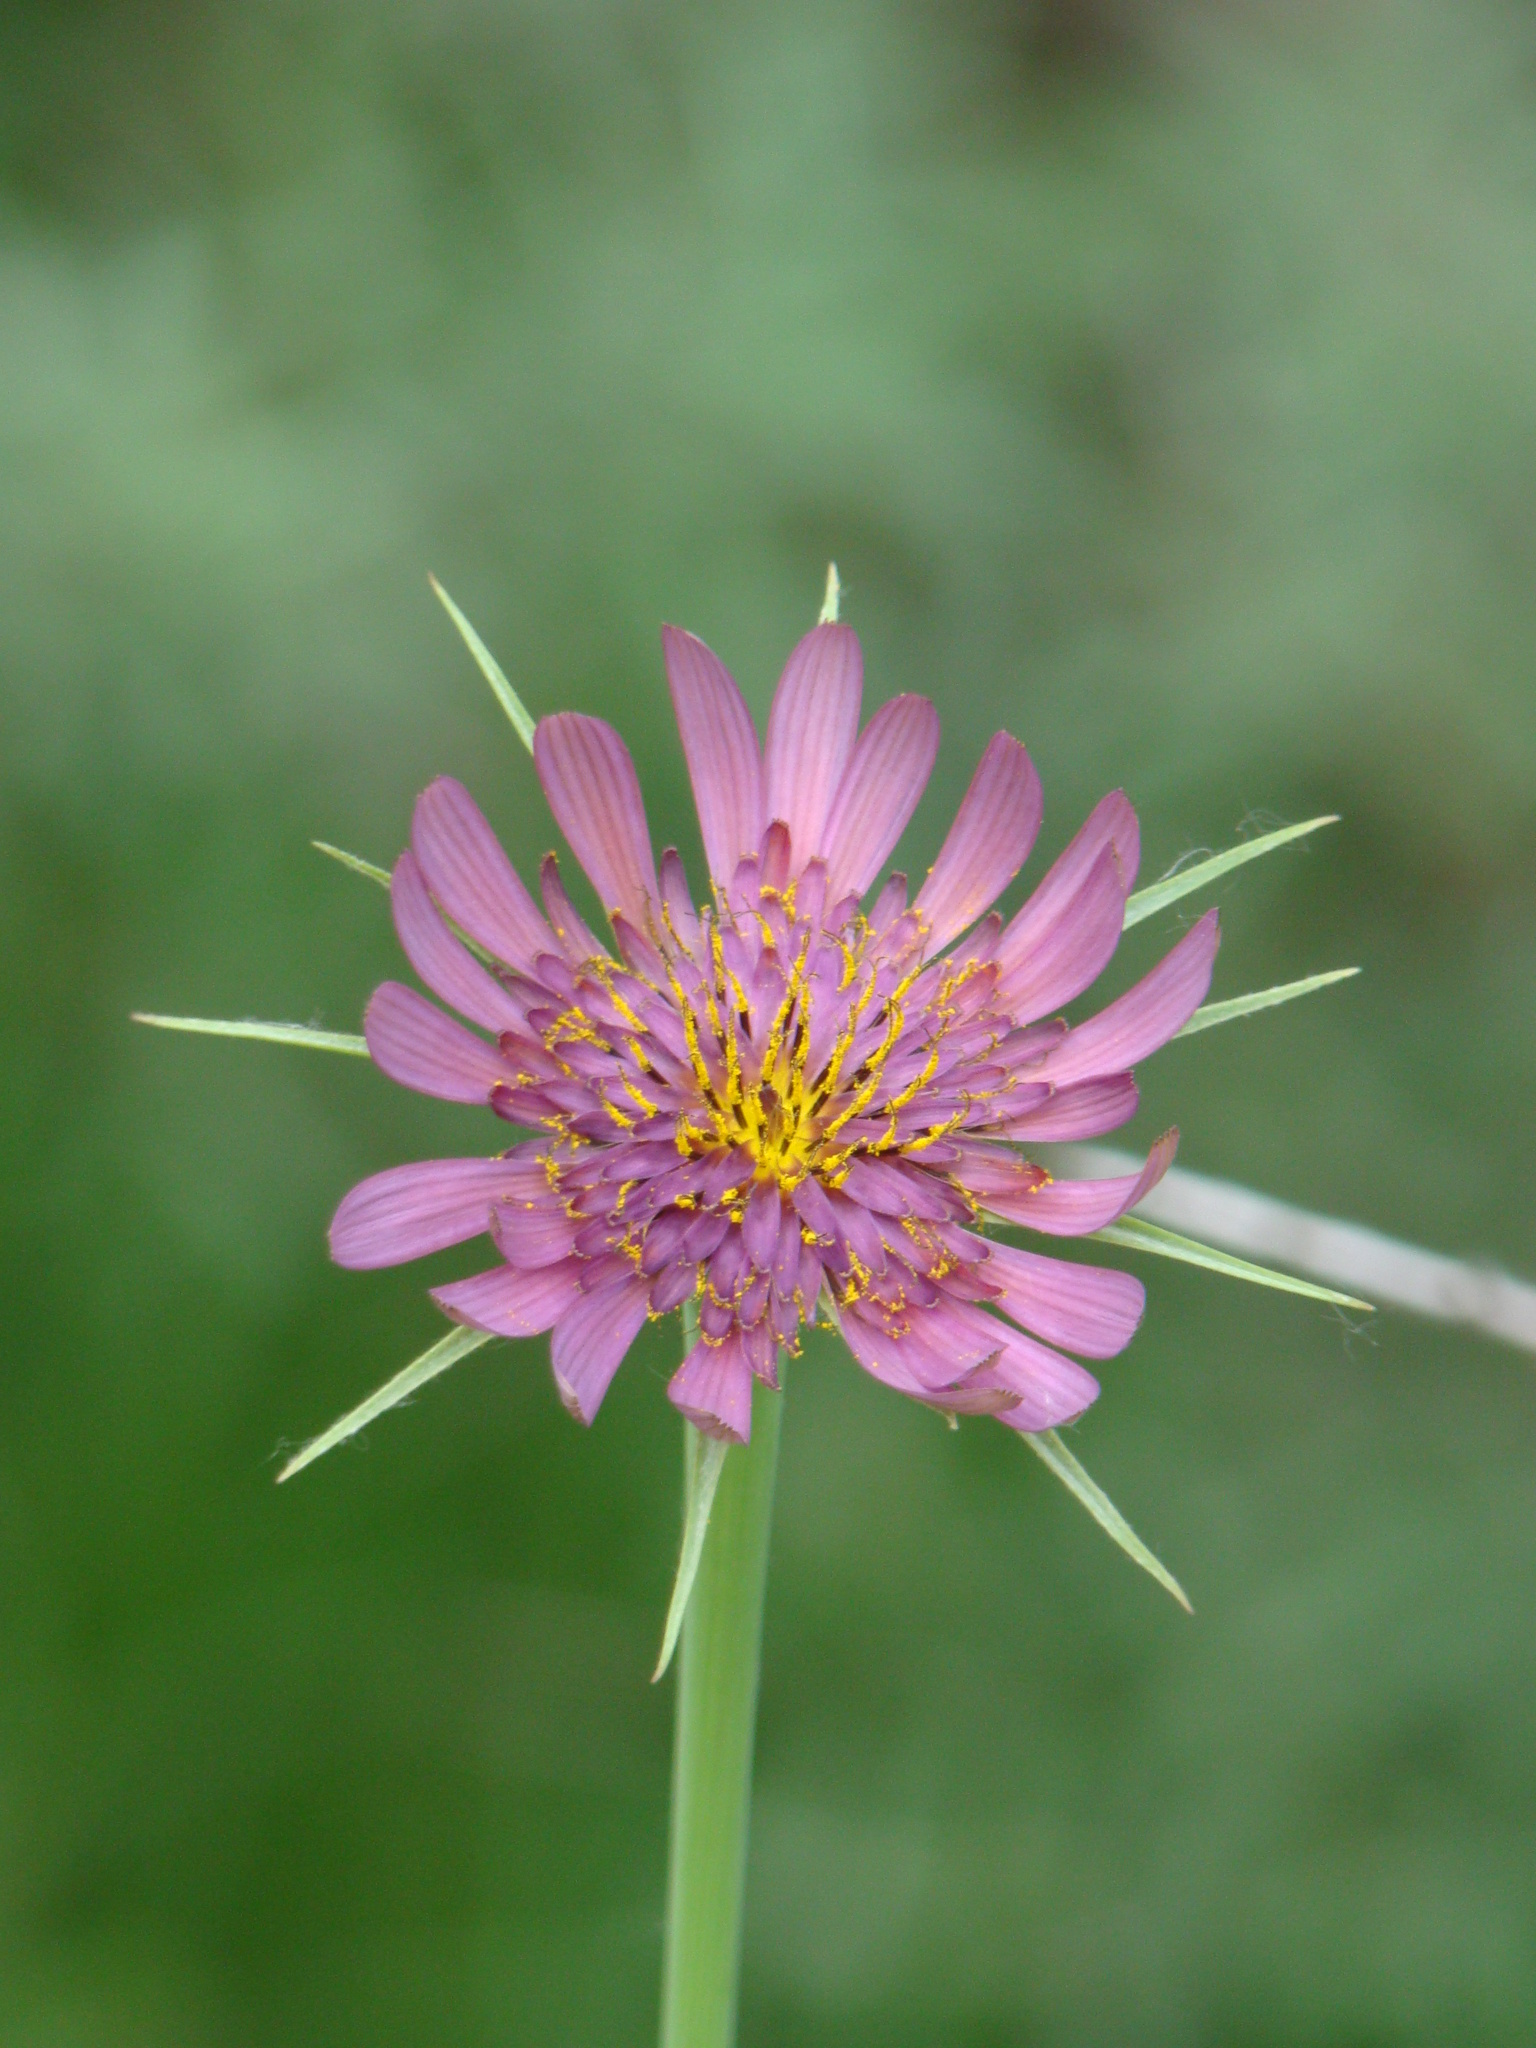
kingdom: Plantae
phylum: Tracheophyta
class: Magnoliopsida
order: Asterales
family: Asteraceae
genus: Tragopogon
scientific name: Tragopogon porrifolius
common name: Salsify
